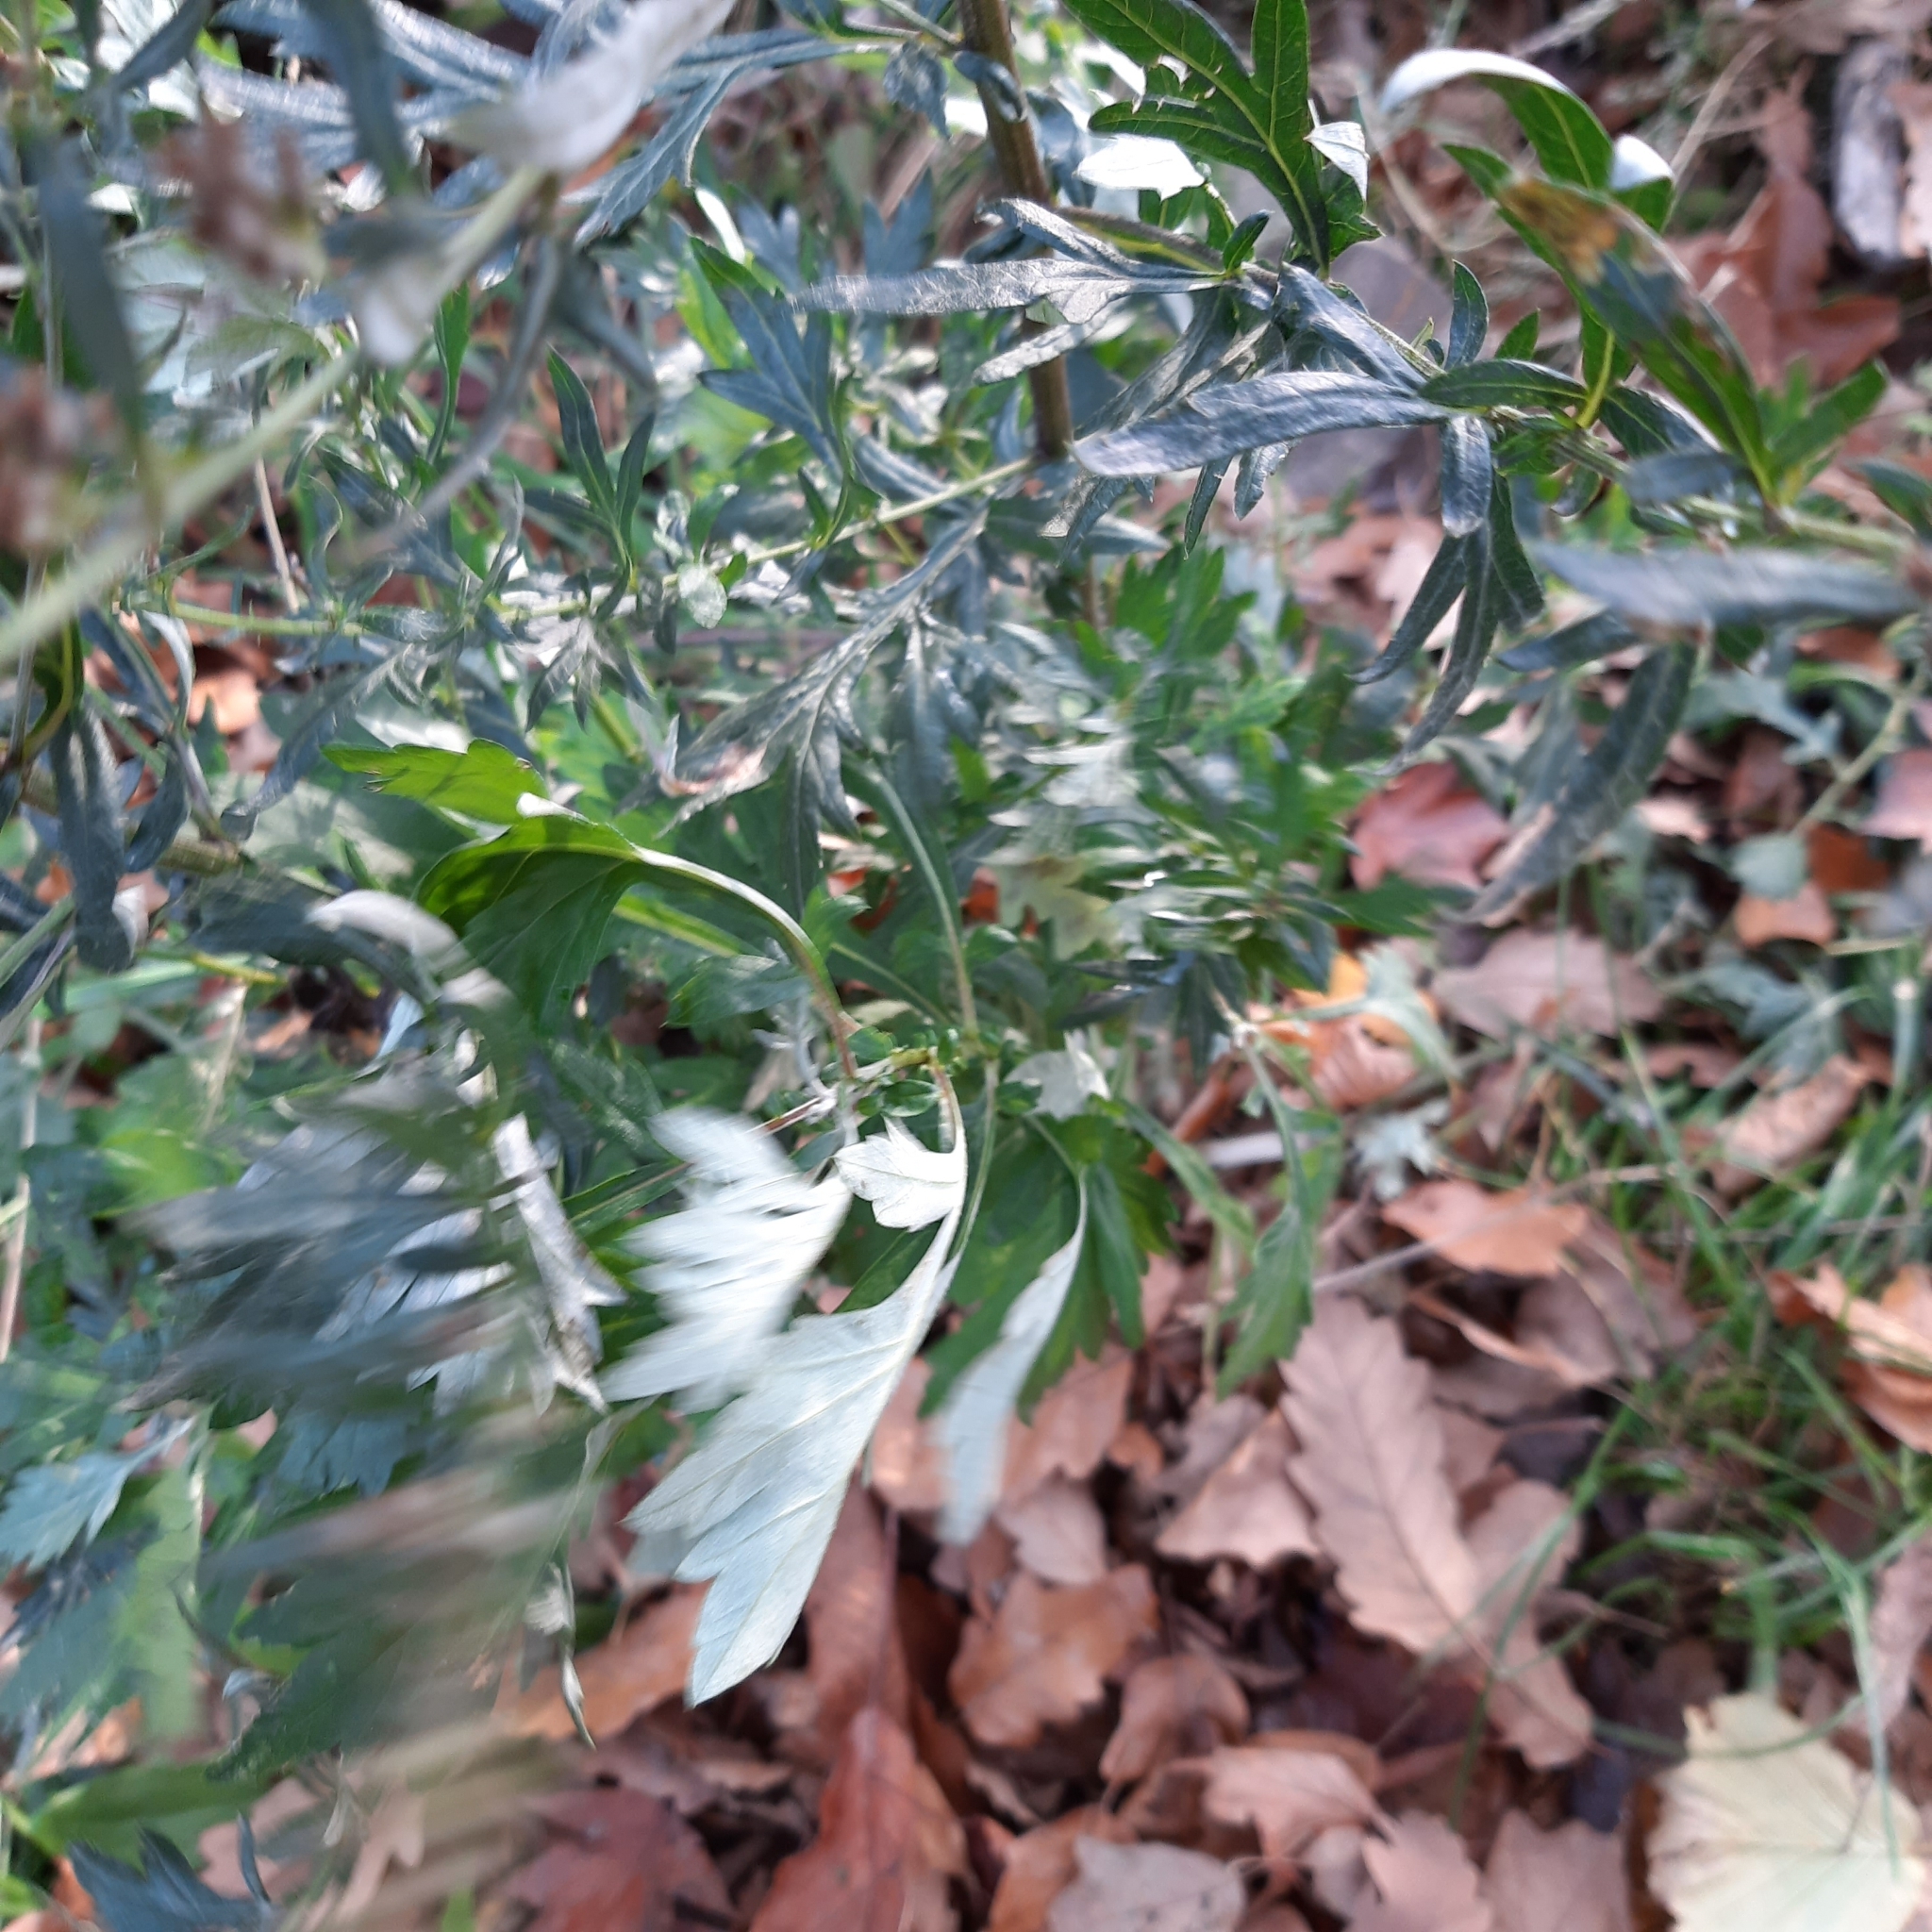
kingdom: Plantae
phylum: Tracheophyta
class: Magnoliopsida
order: Asterales
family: Asteraceae
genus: Artemisia
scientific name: Artemisia vulgaris
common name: Mugwort
